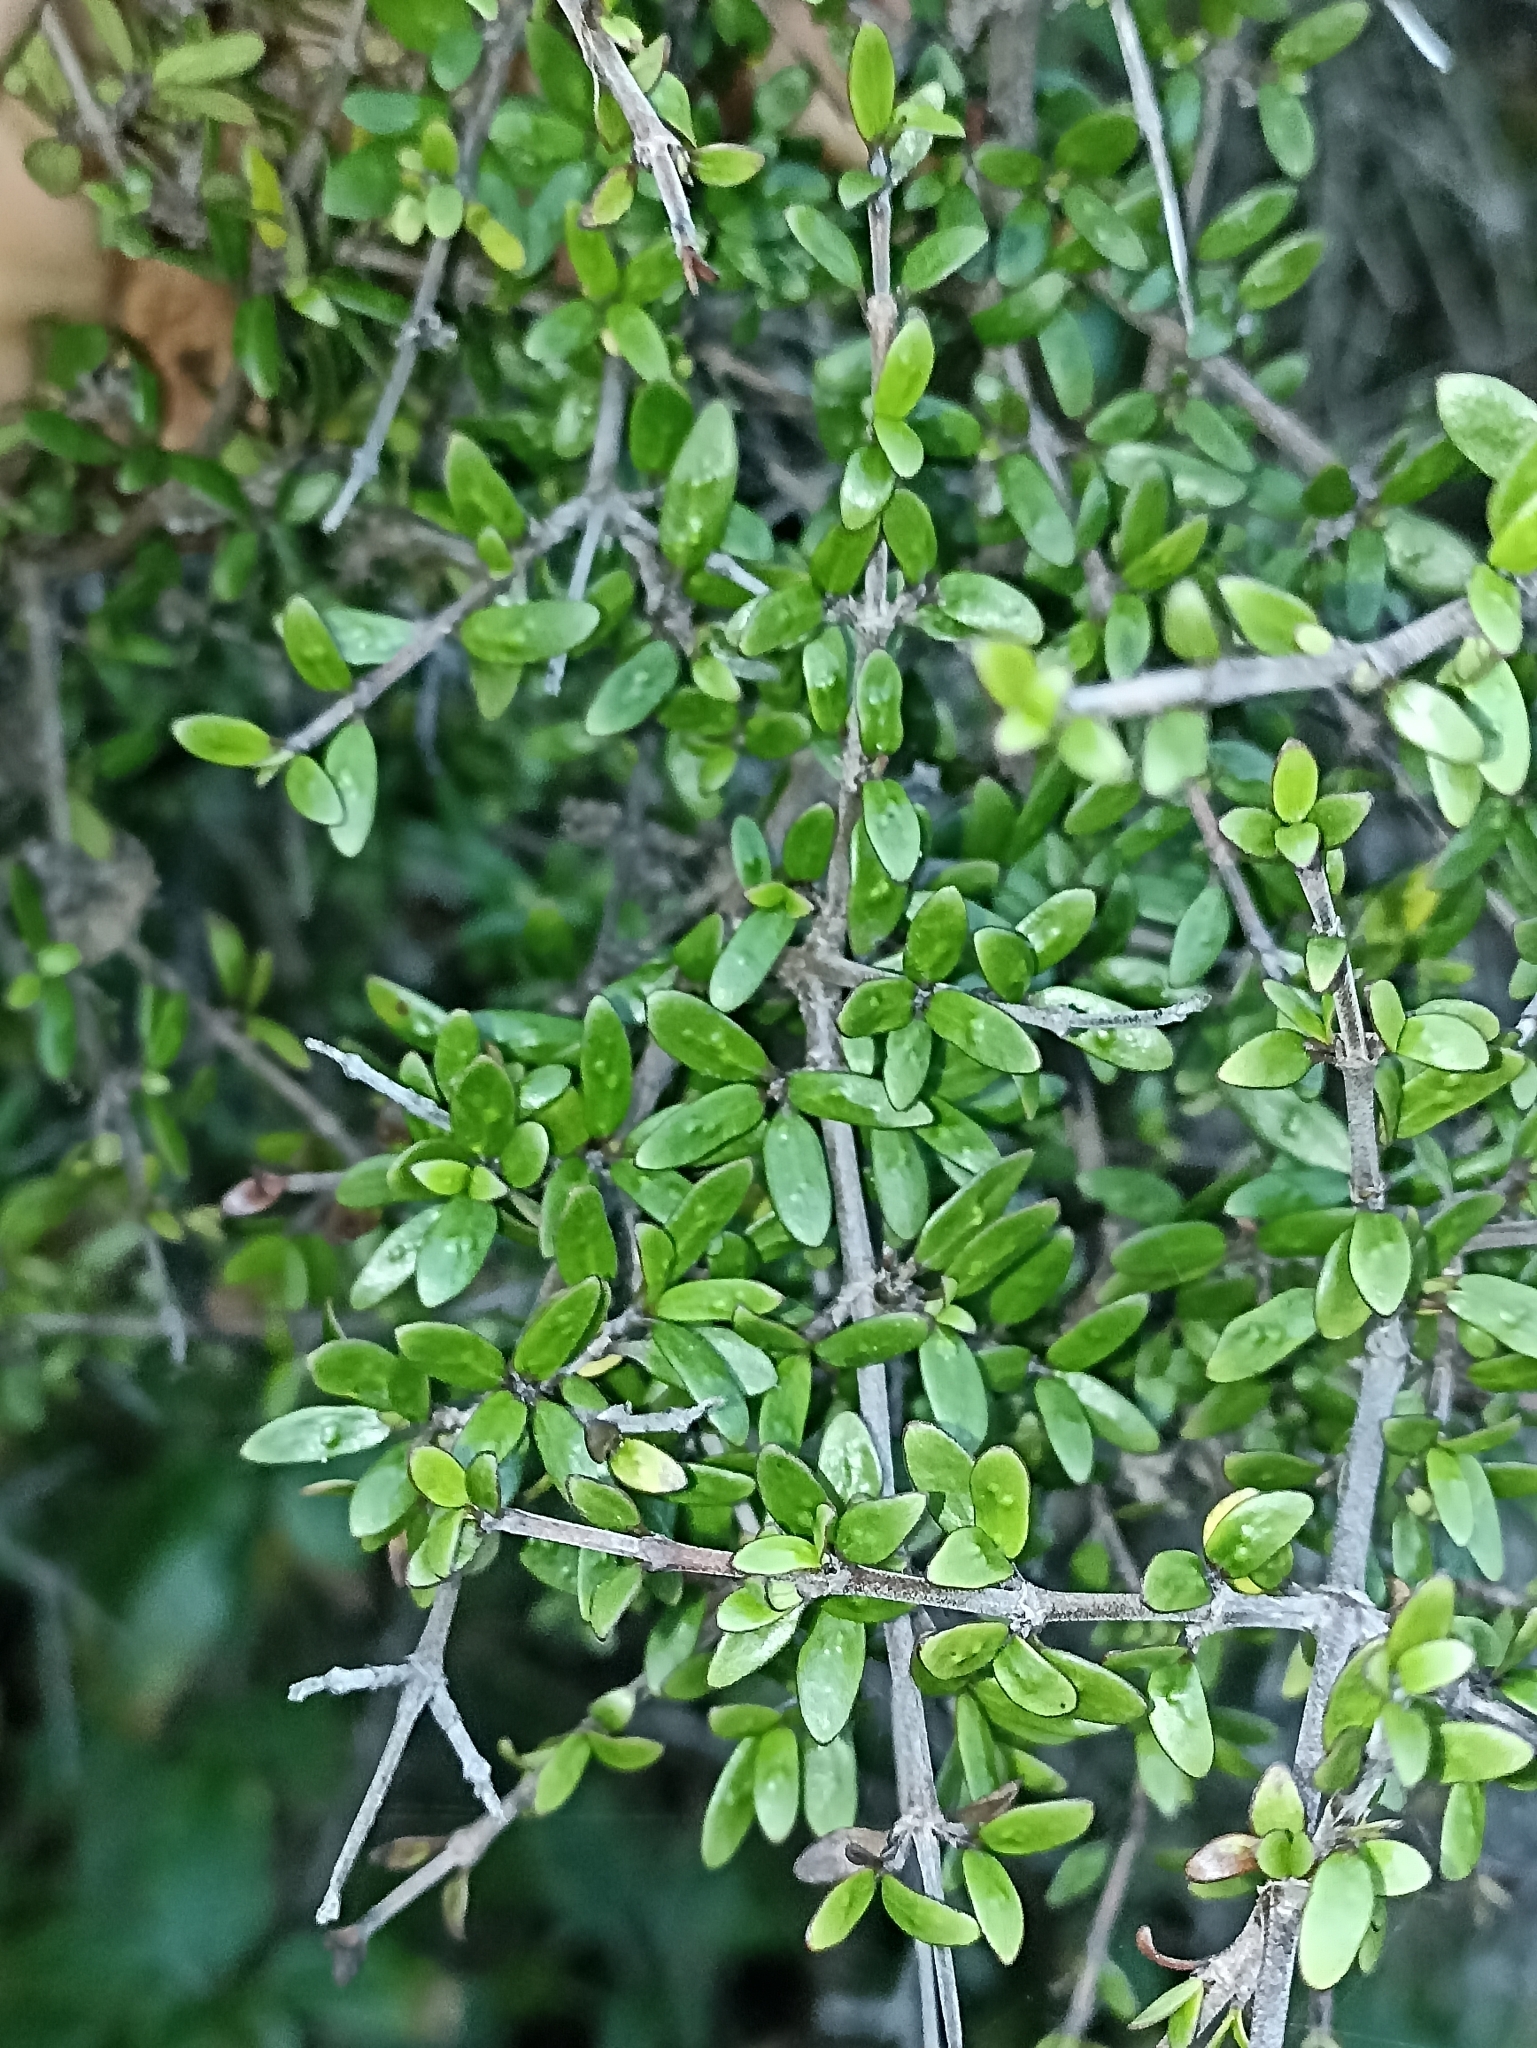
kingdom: Plantae
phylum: Tracheophyta
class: Magnoliopsida
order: Gentianales
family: Rubiaceae
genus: Coprosma
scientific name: Coprosma propinqua
